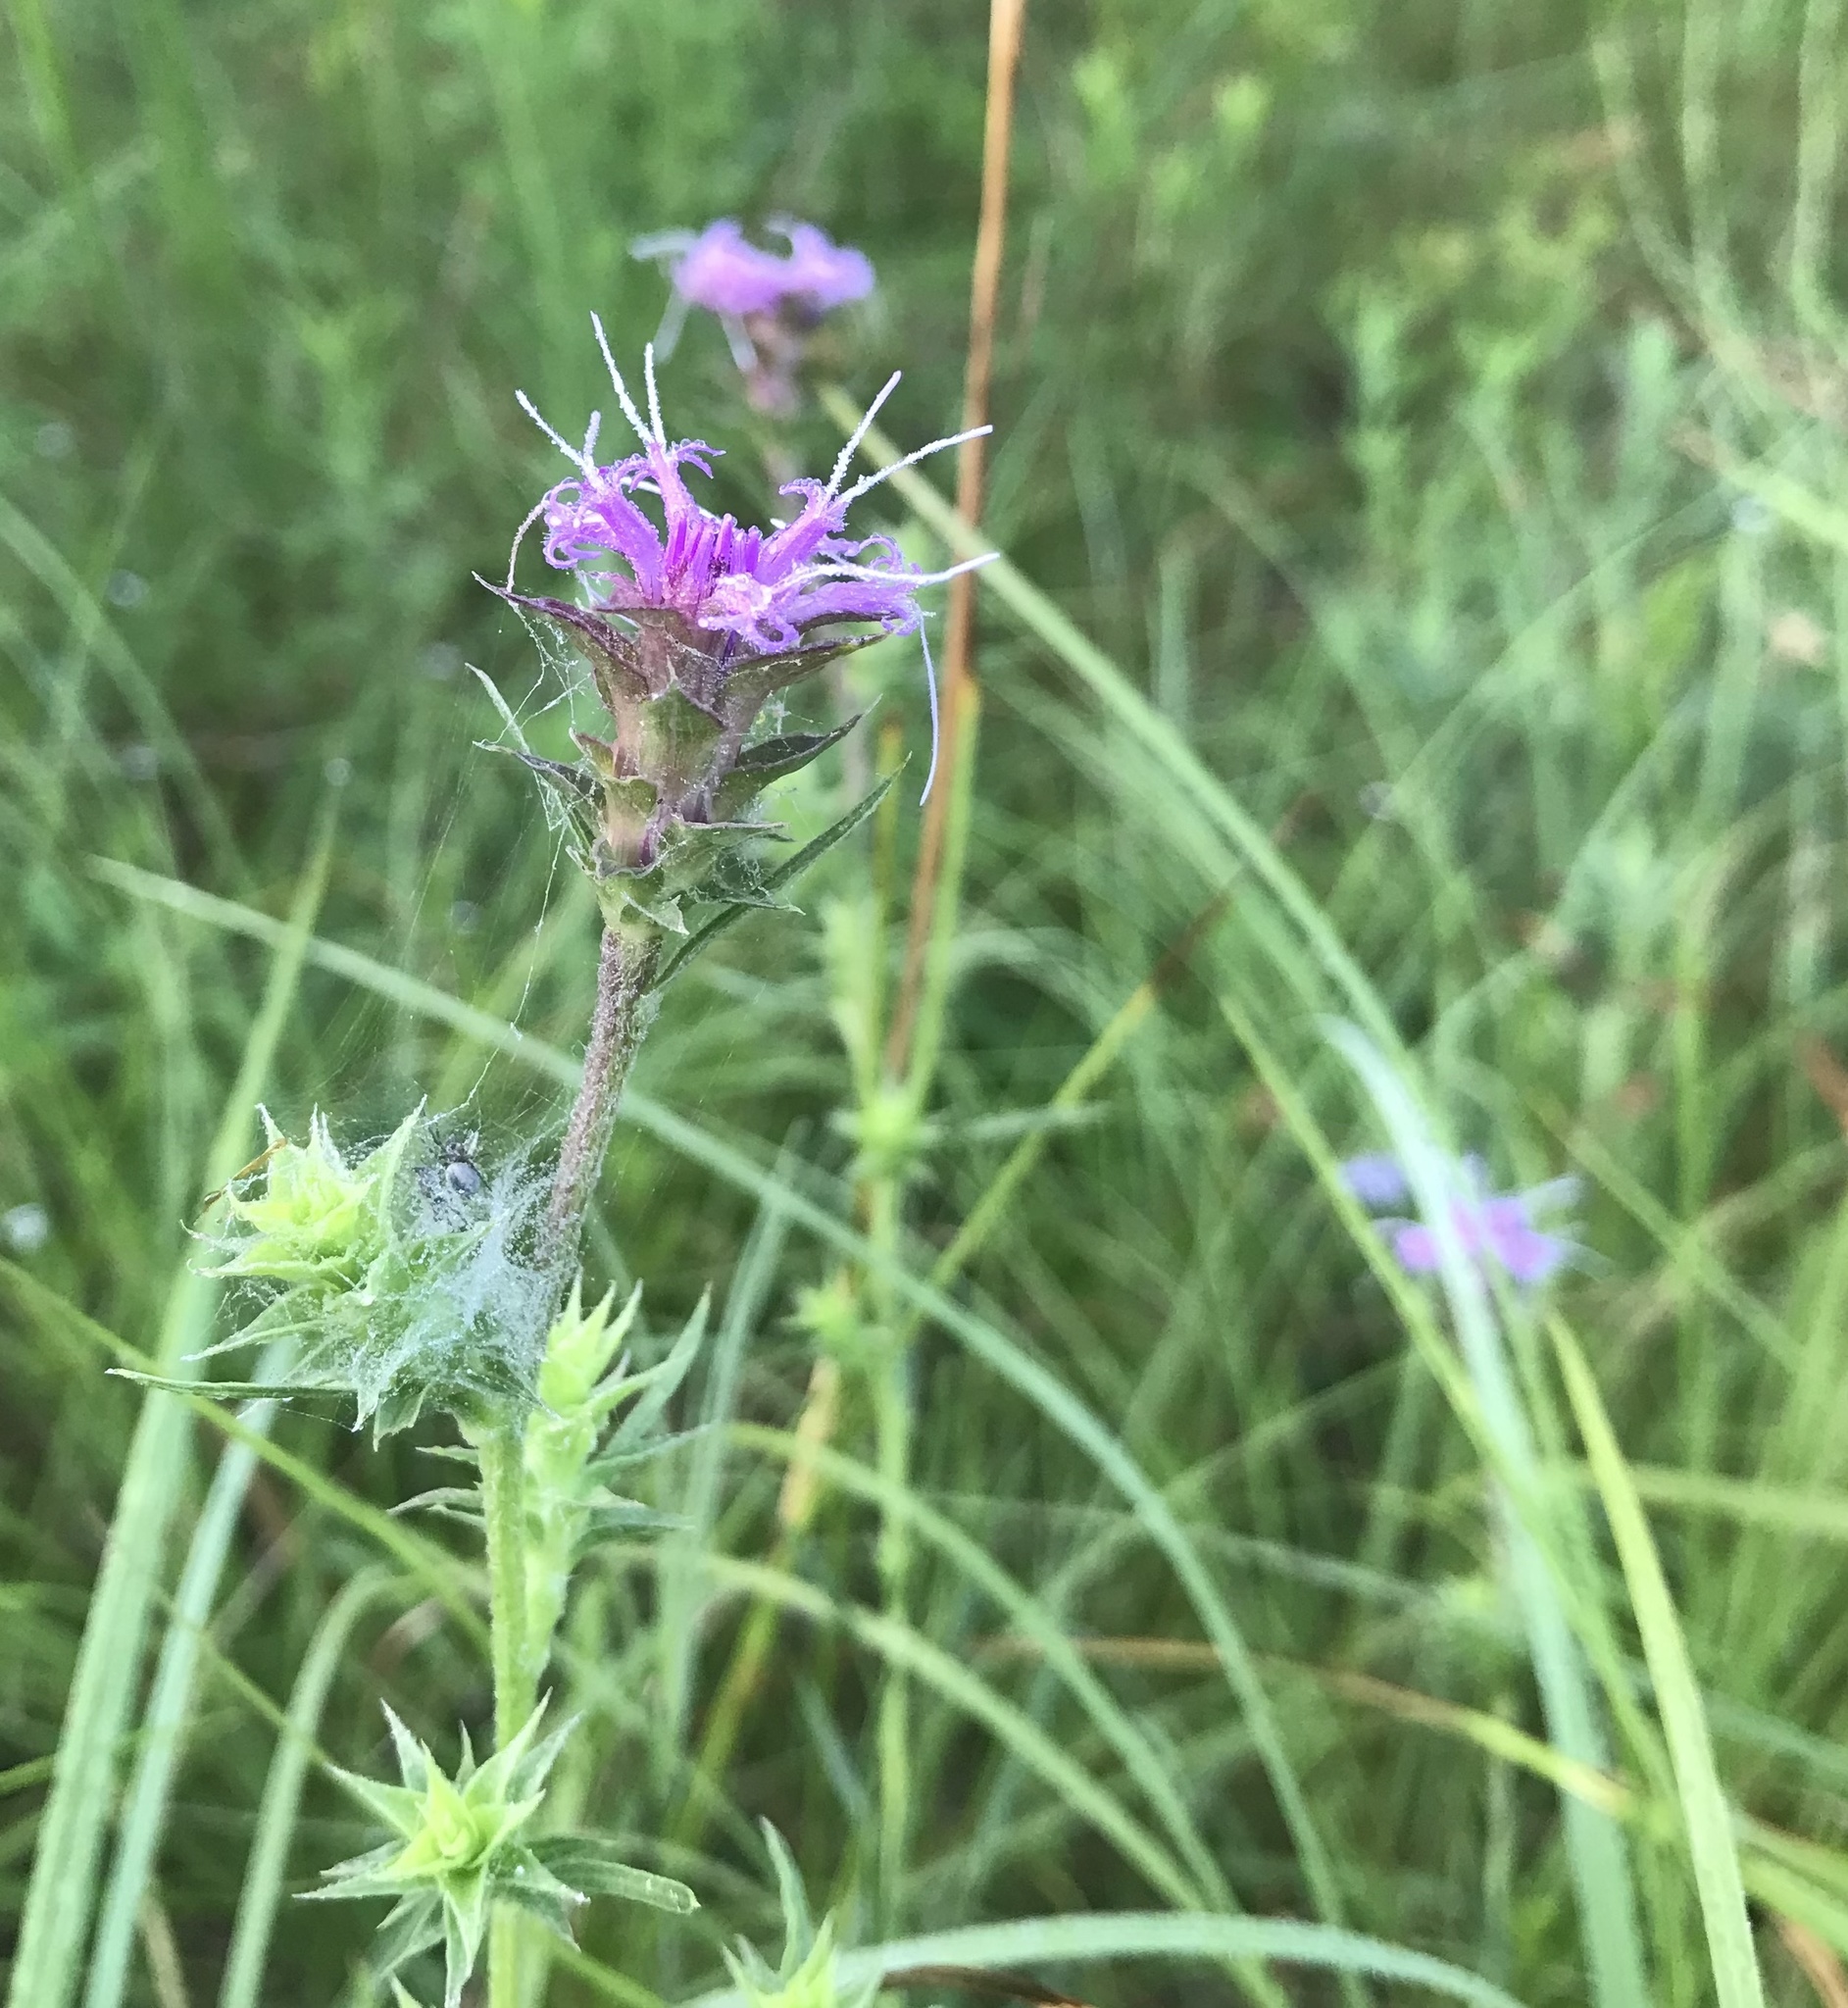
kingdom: Plantae
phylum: Tracheophyta
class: Magnoliopsida
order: Asterales
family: Asteraceae
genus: Liatris
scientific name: Liatris squarrosa
